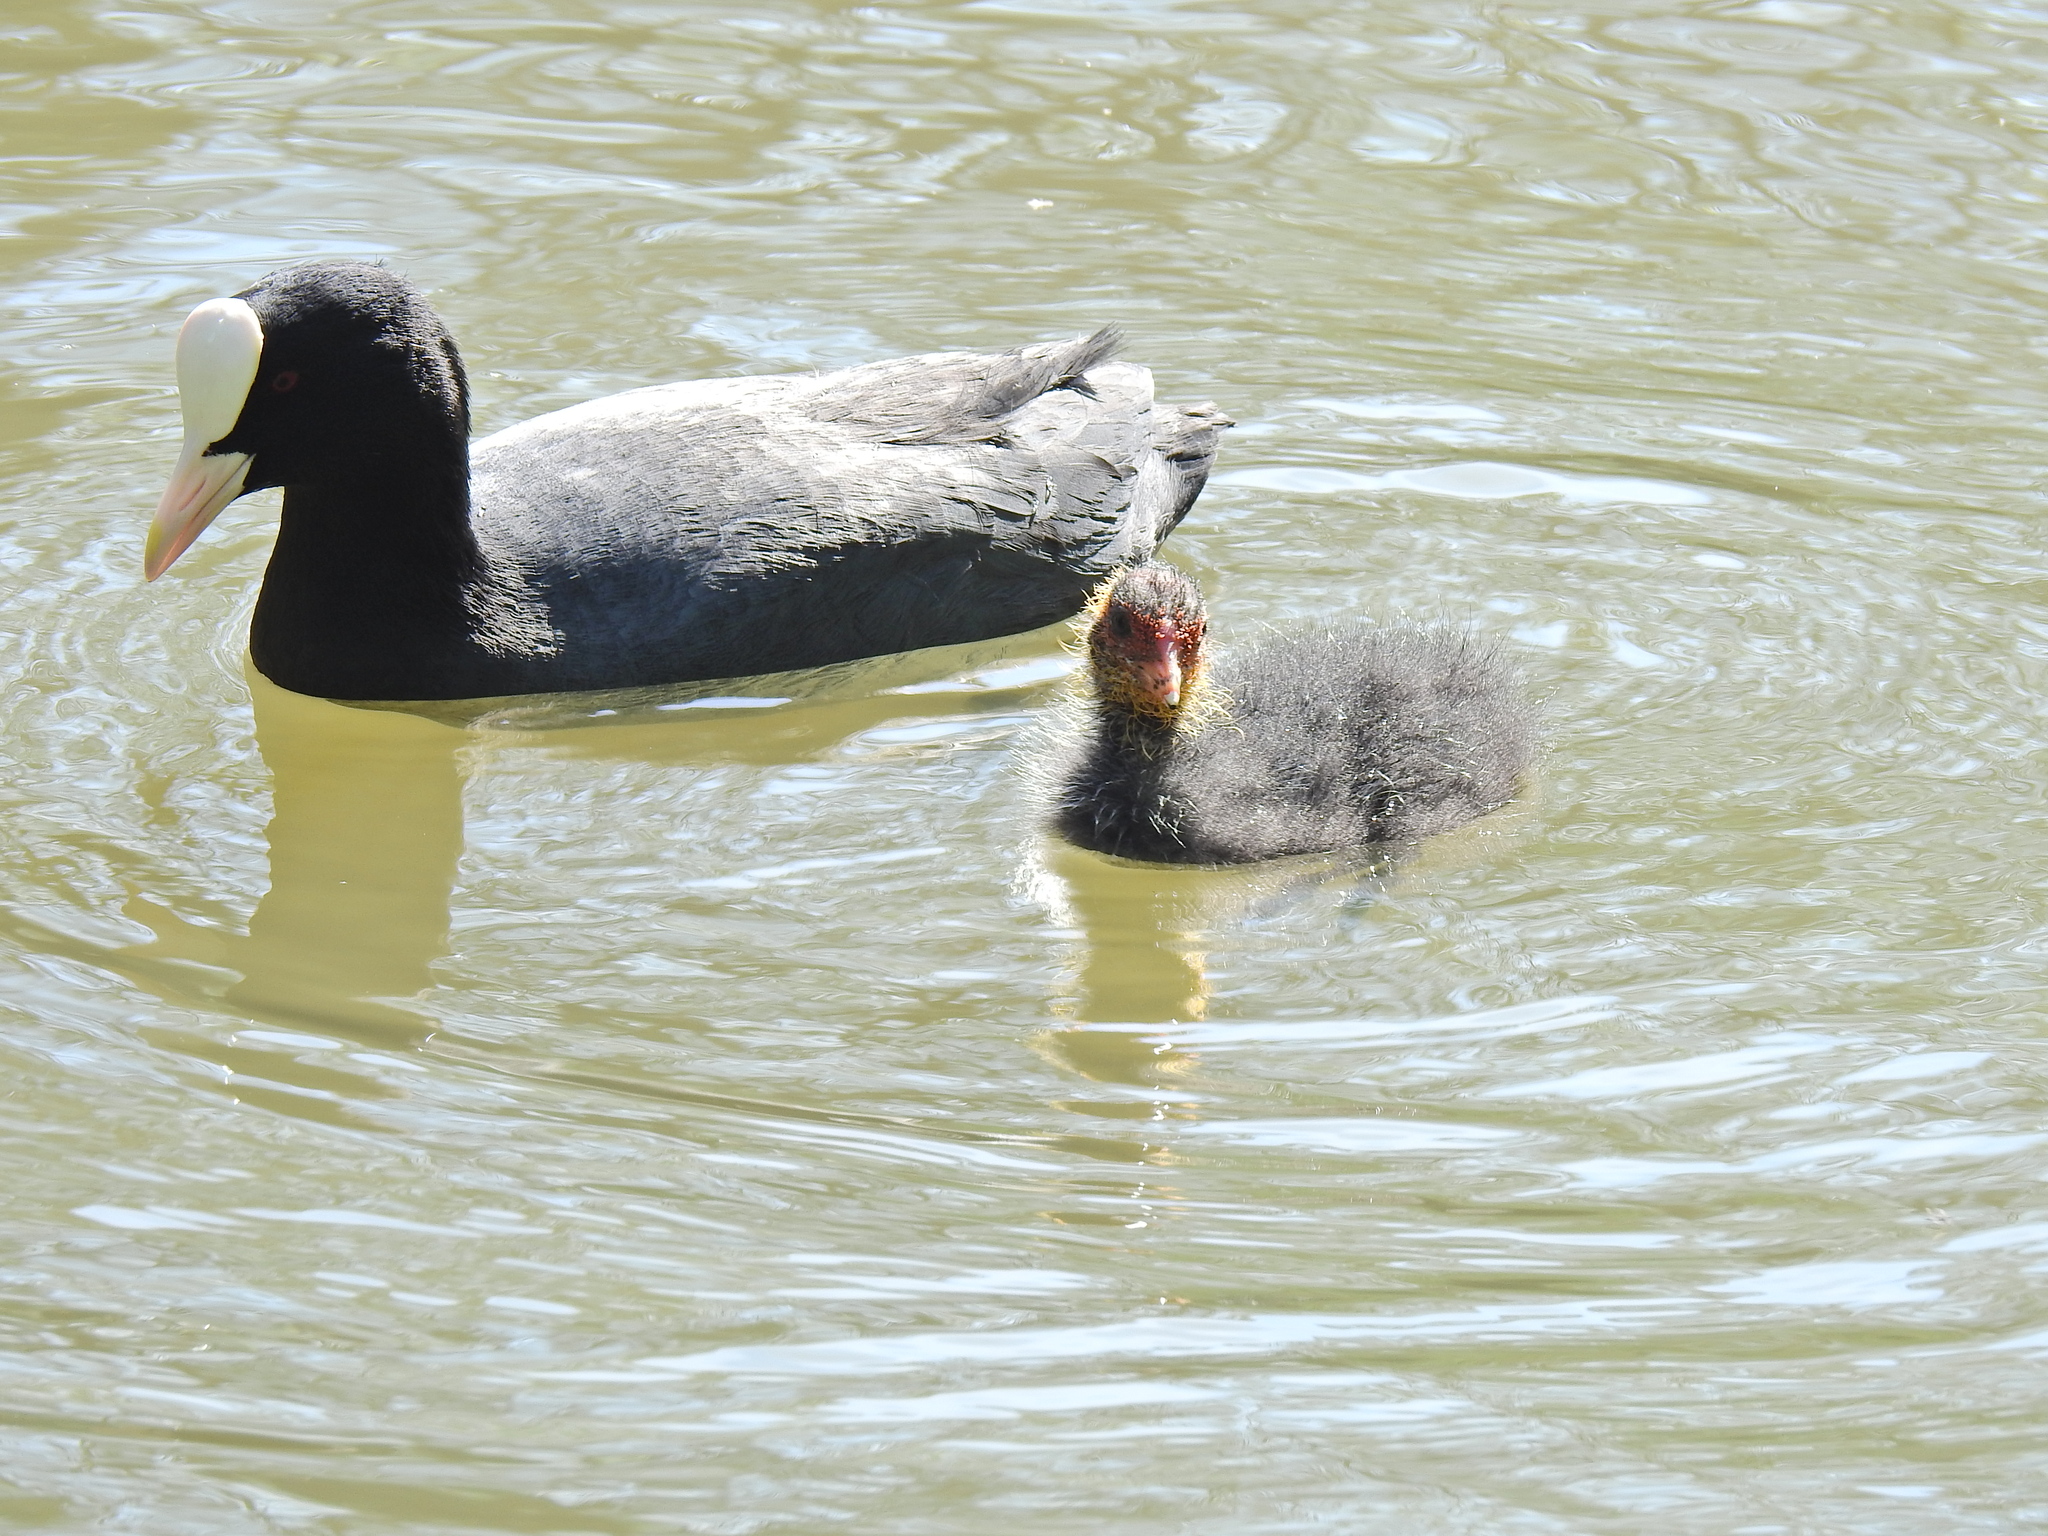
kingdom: Animalia
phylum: Chordata
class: Aves
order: Gruiformes
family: Rallidae
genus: Fulica
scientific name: Fulica atra
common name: Eurasian coot
